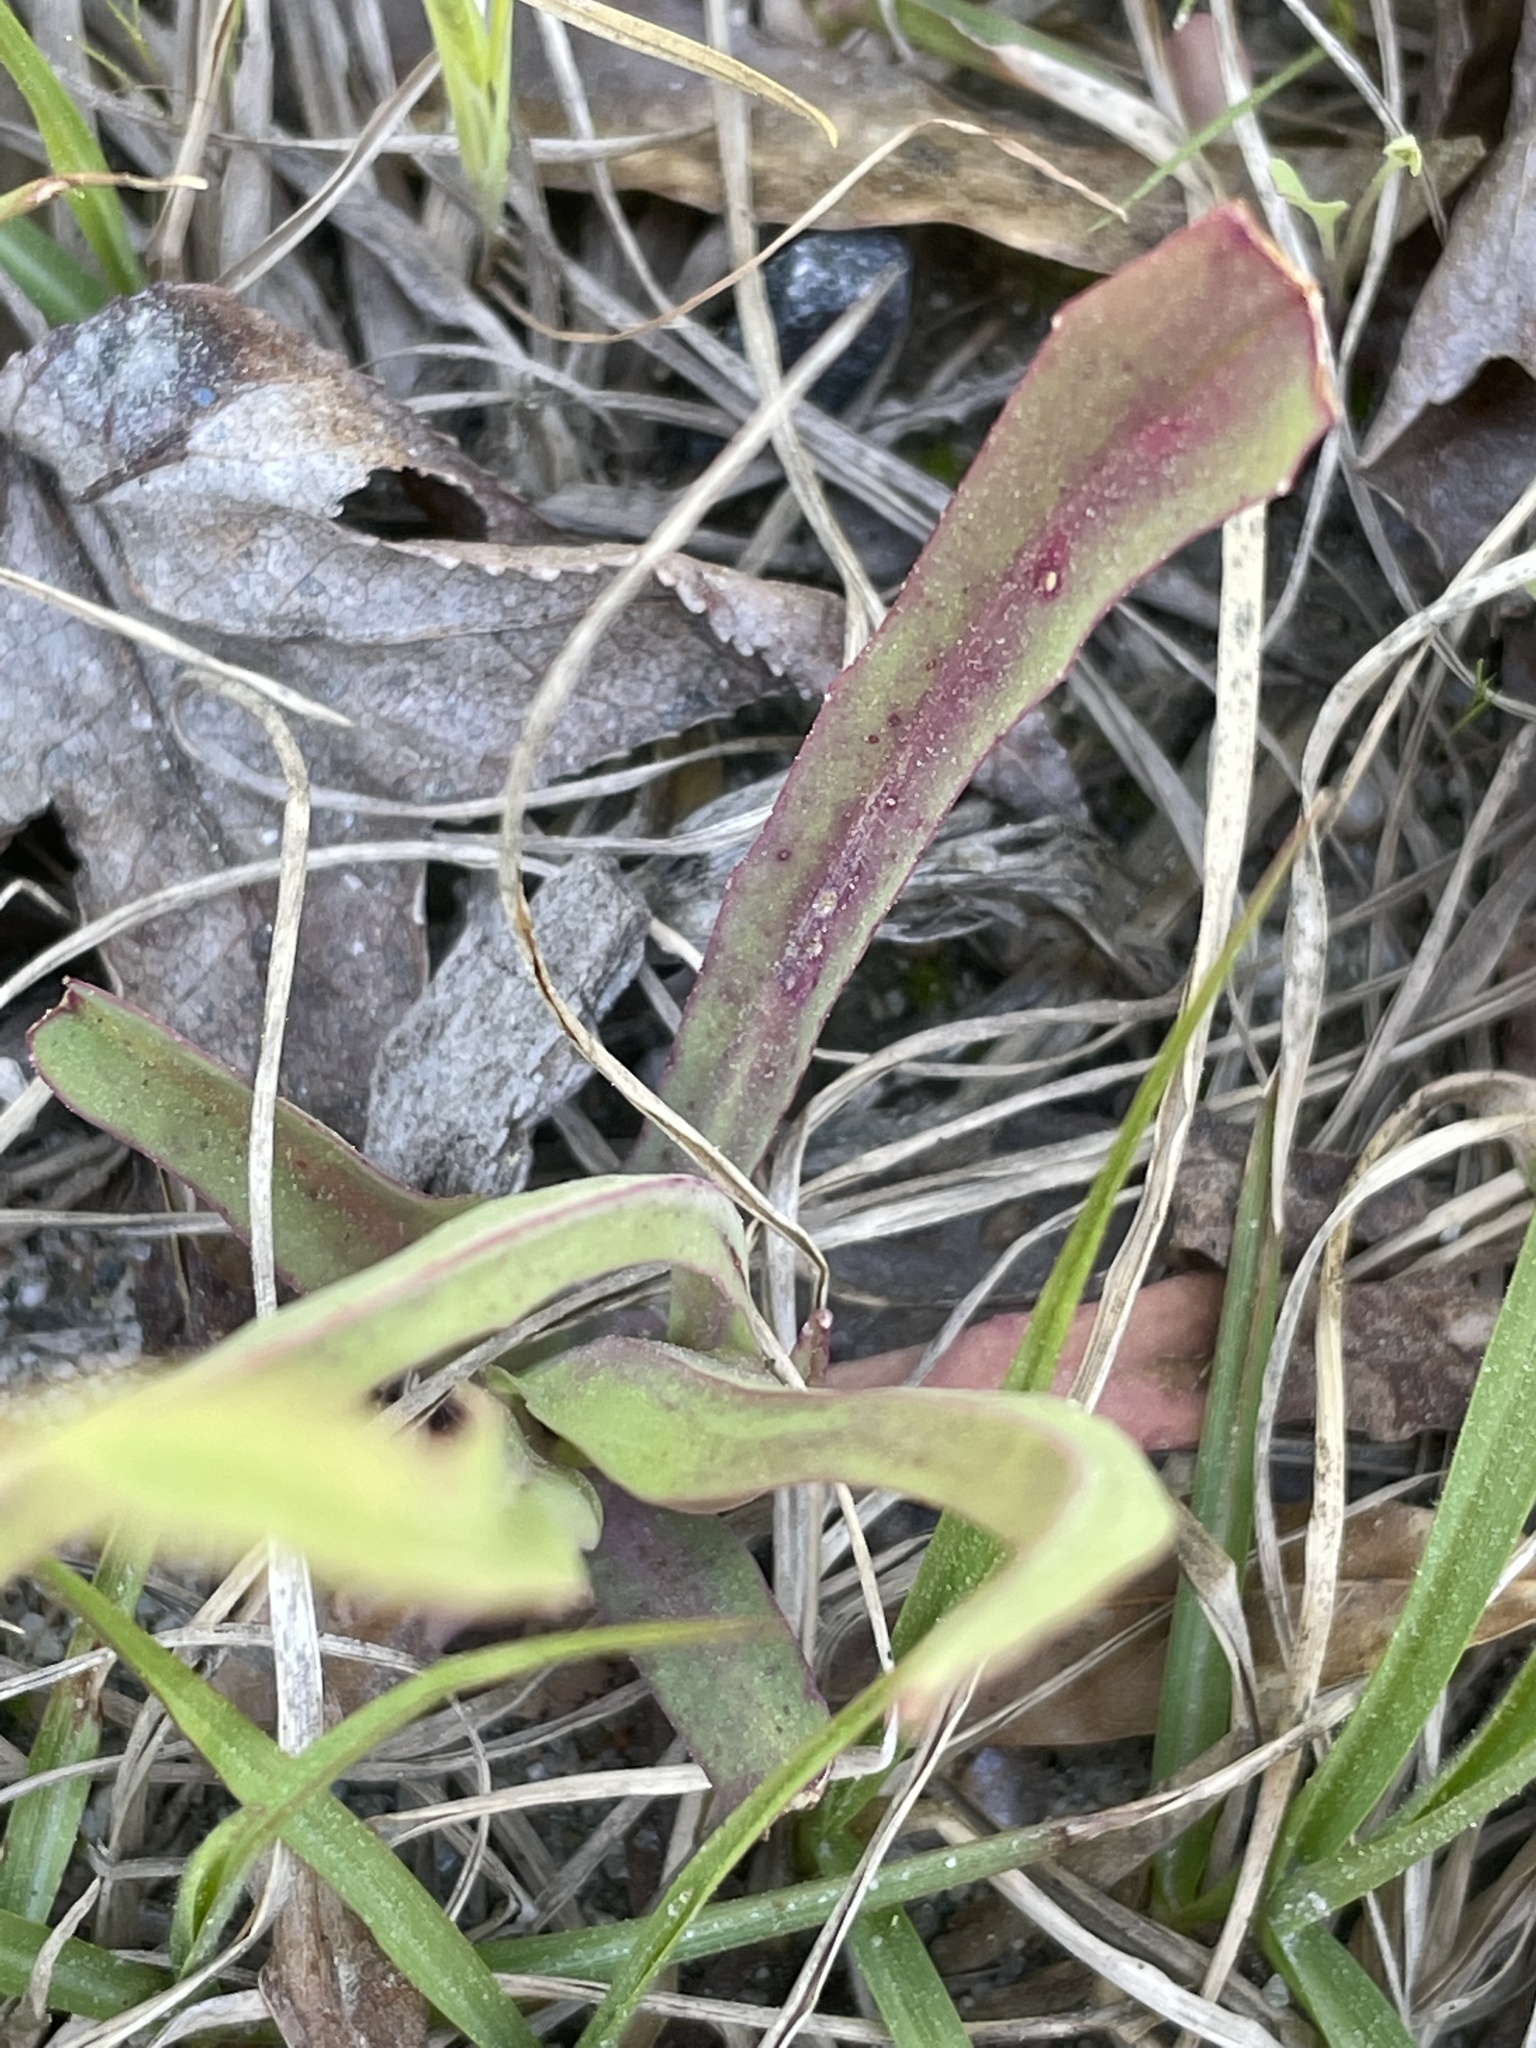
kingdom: Plantae
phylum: Tracheophyta
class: Magnoliopsida
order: Asterales
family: Asteraceae
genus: Krigia
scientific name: Krigia dandelion
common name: Colonial dwarf-dandelion
